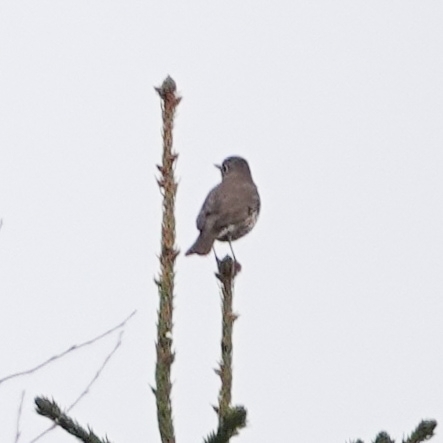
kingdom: Animalia
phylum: Chordata
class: Aves
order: Passeriformes
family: Turdidae
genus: Turdus
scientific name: Turdus viscivorus
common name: Mistle thrush
